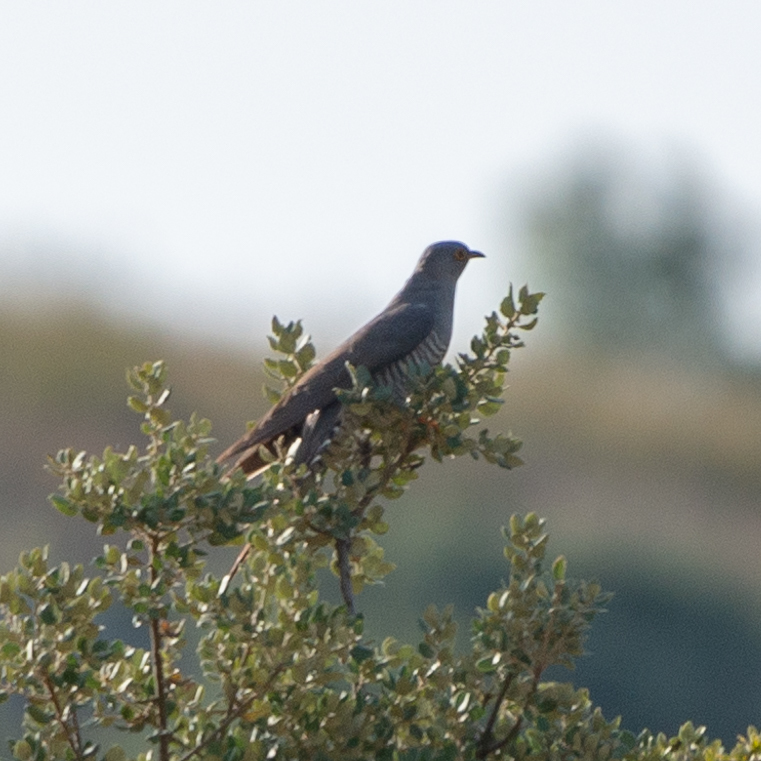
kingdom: Animalia
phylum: Chordata
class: Aves
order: Cuculiformes
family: Cuculidae
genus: Cuculus
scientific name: Cuculus canorus
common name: Common cuckoo
